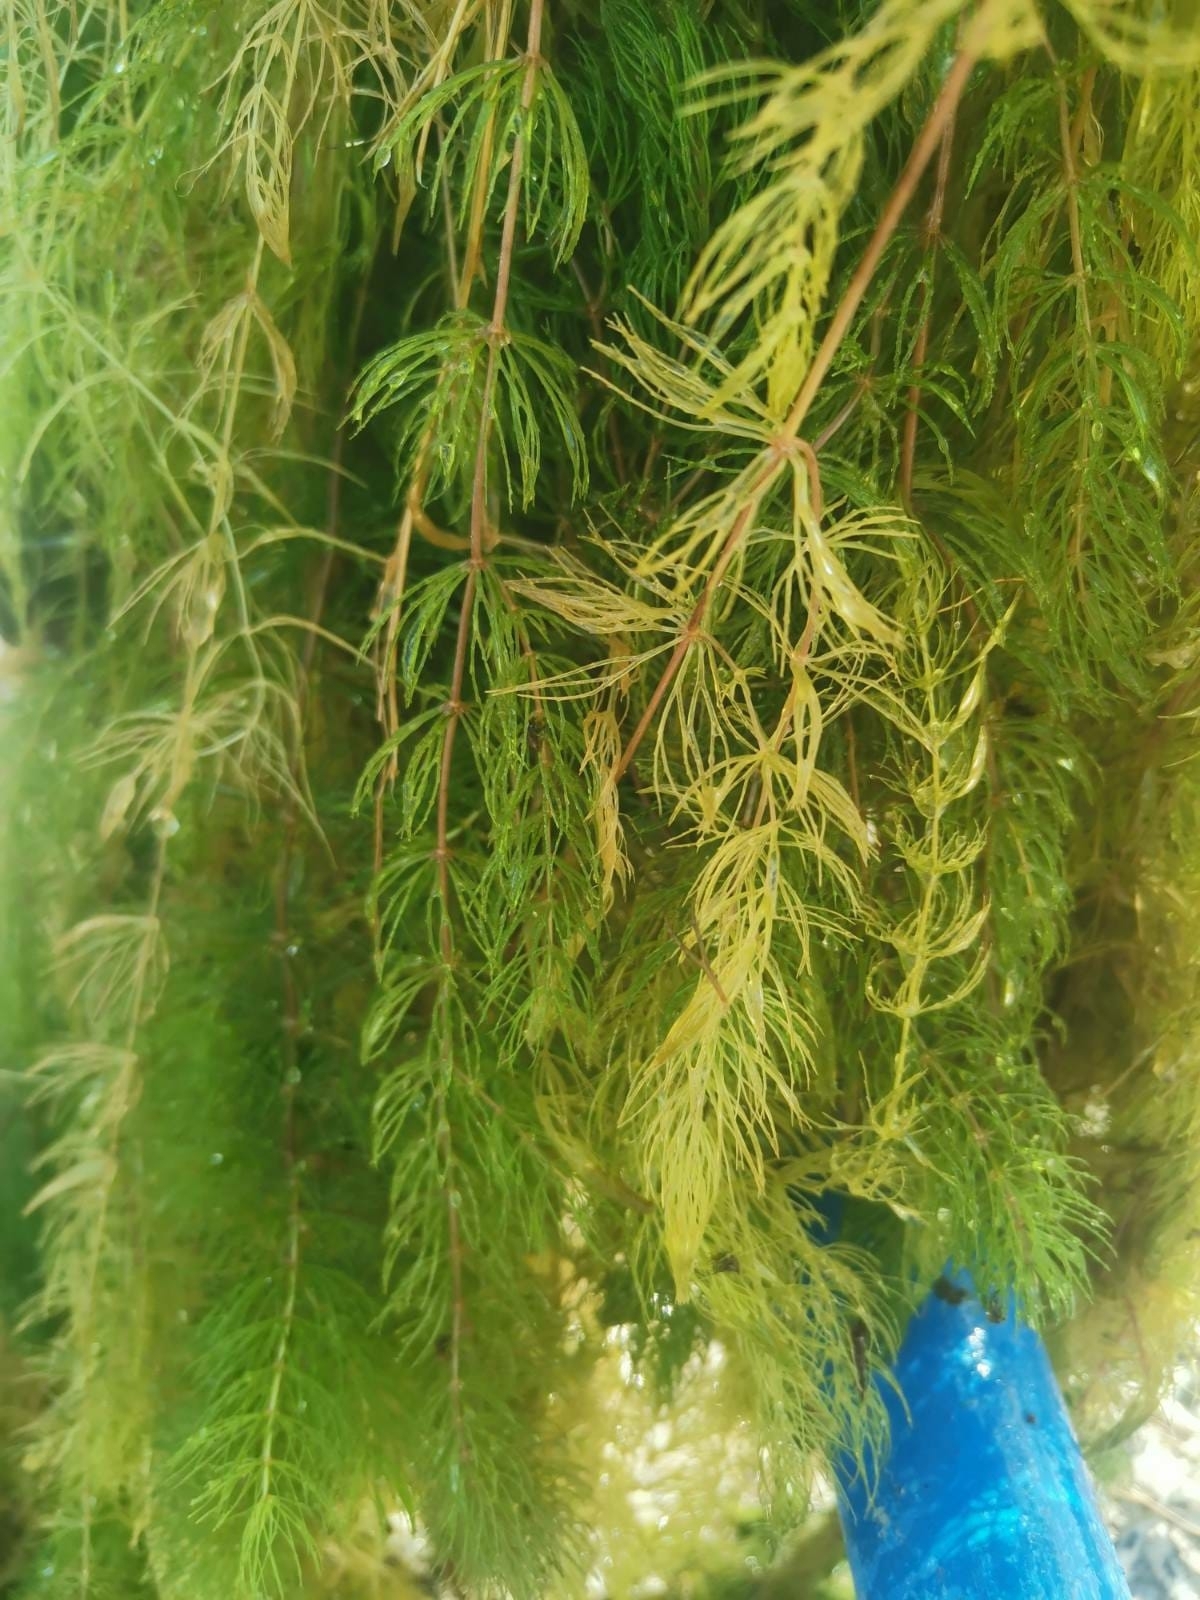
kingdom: Plantae
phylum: Tracheophyta
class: Magnoliopsida
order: Ceratophyllales
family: Ceratophyllaceae
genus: Ceratophyllum
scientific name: Ceratophyllum demersum
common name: Rigid hornwort
